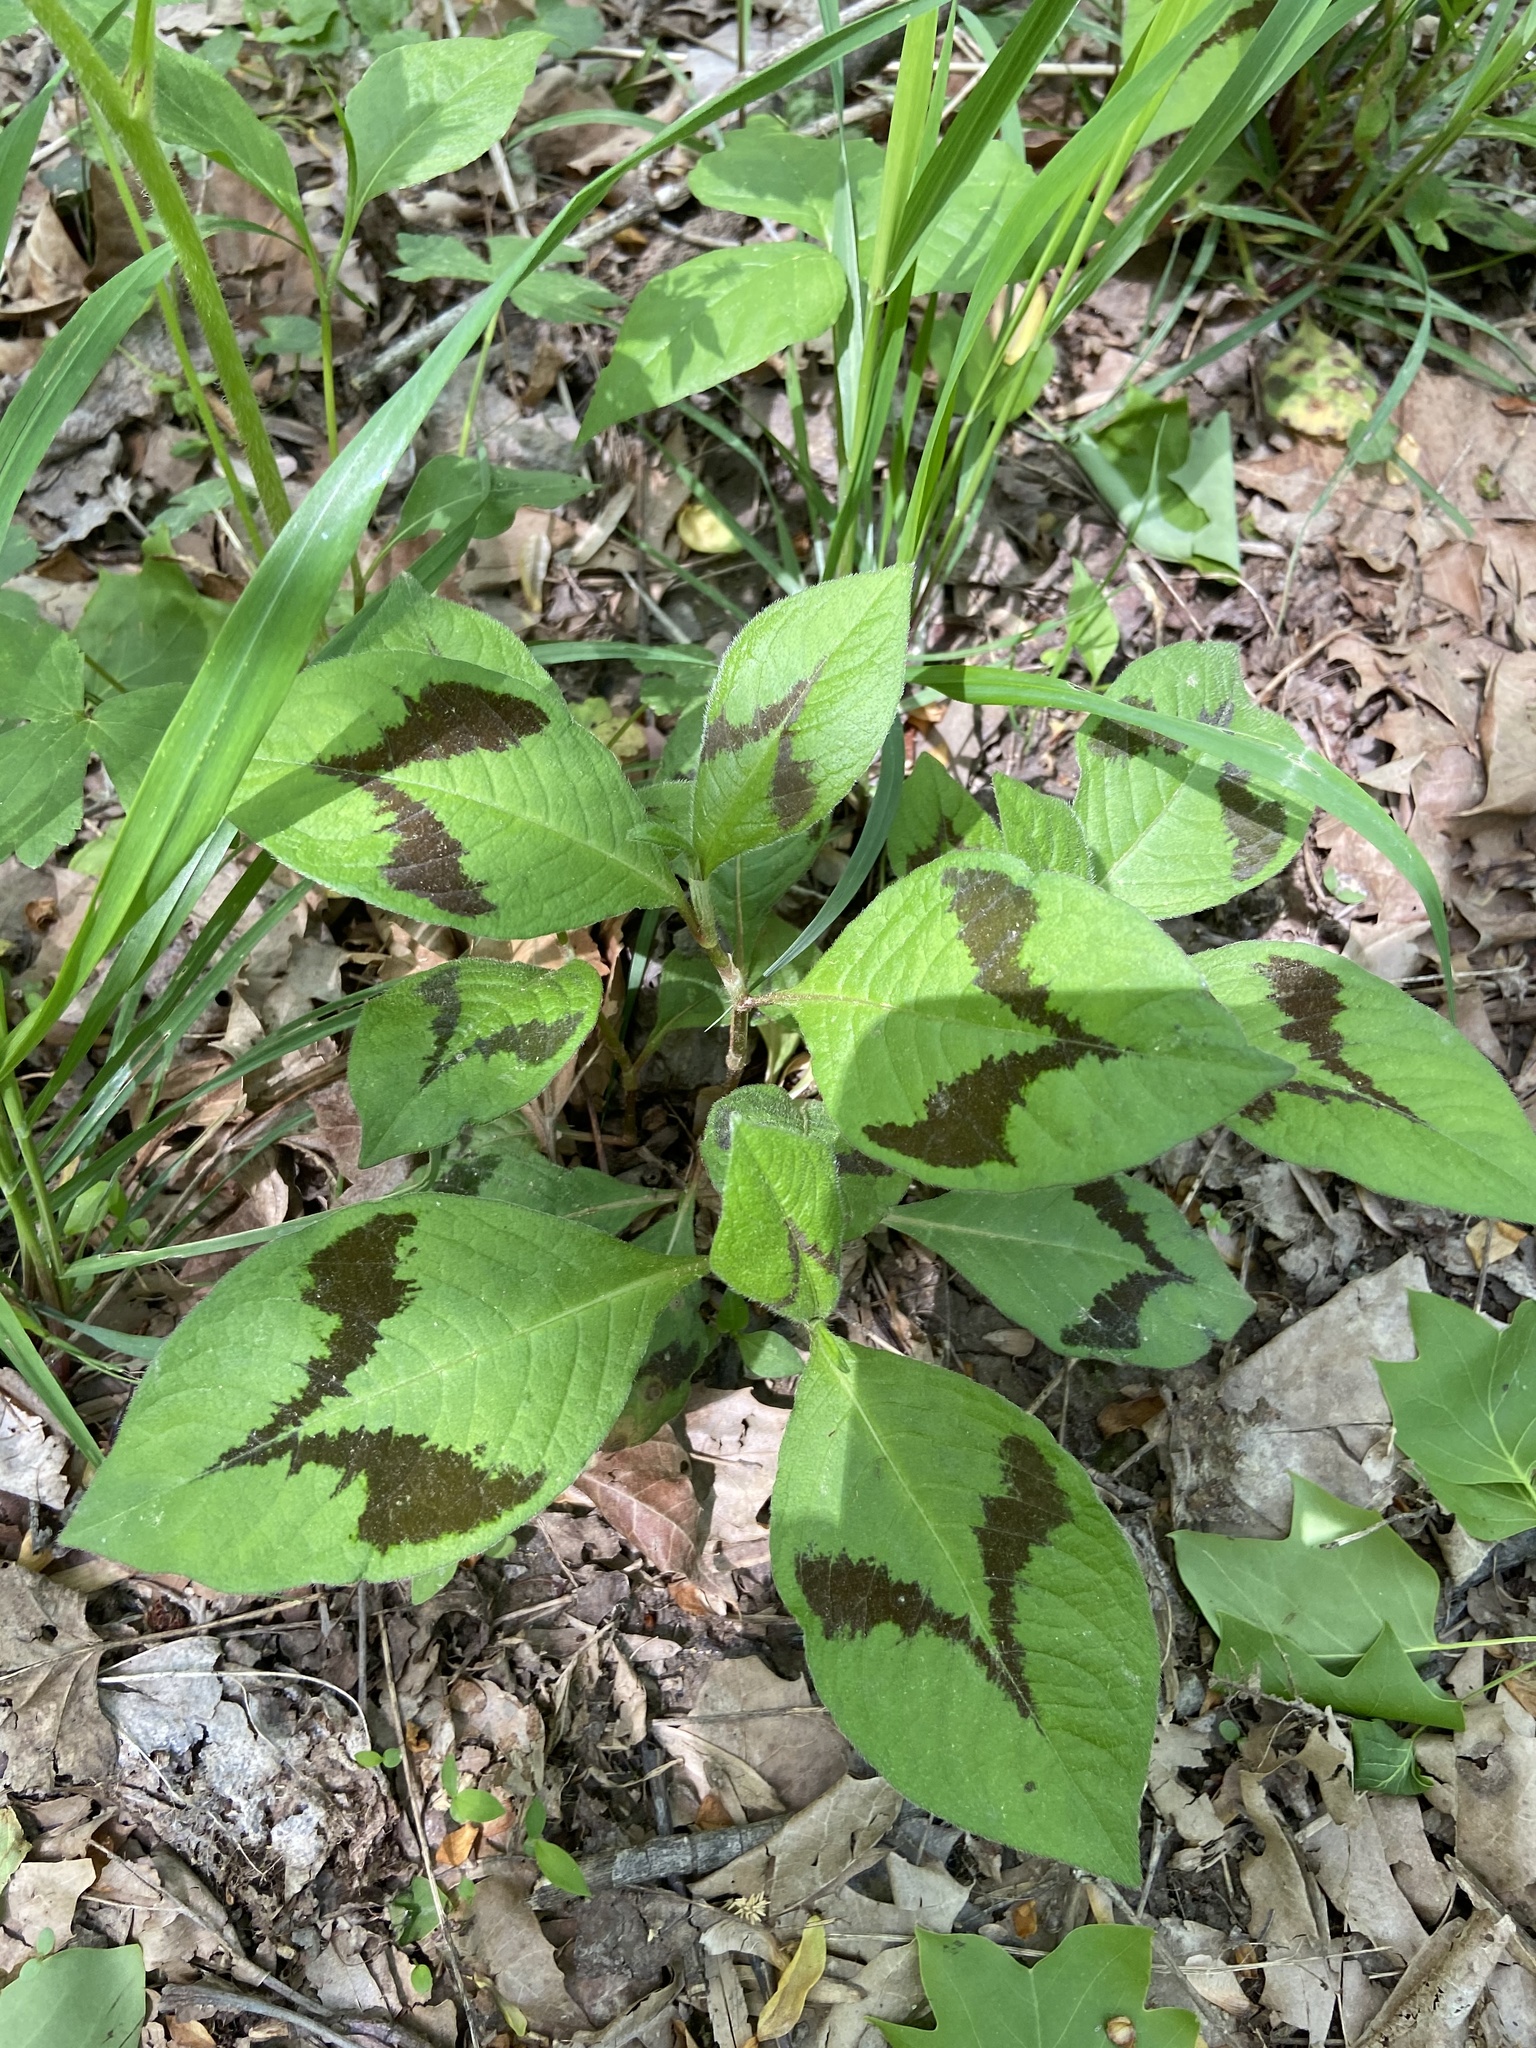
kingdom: Plantae
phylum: Tracheophyta
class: Magnoliopsida
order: Caryophyllales
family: Polygonaceae
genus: Persicaria
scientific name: Persicaria filiformis
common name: Asian jumpseed
